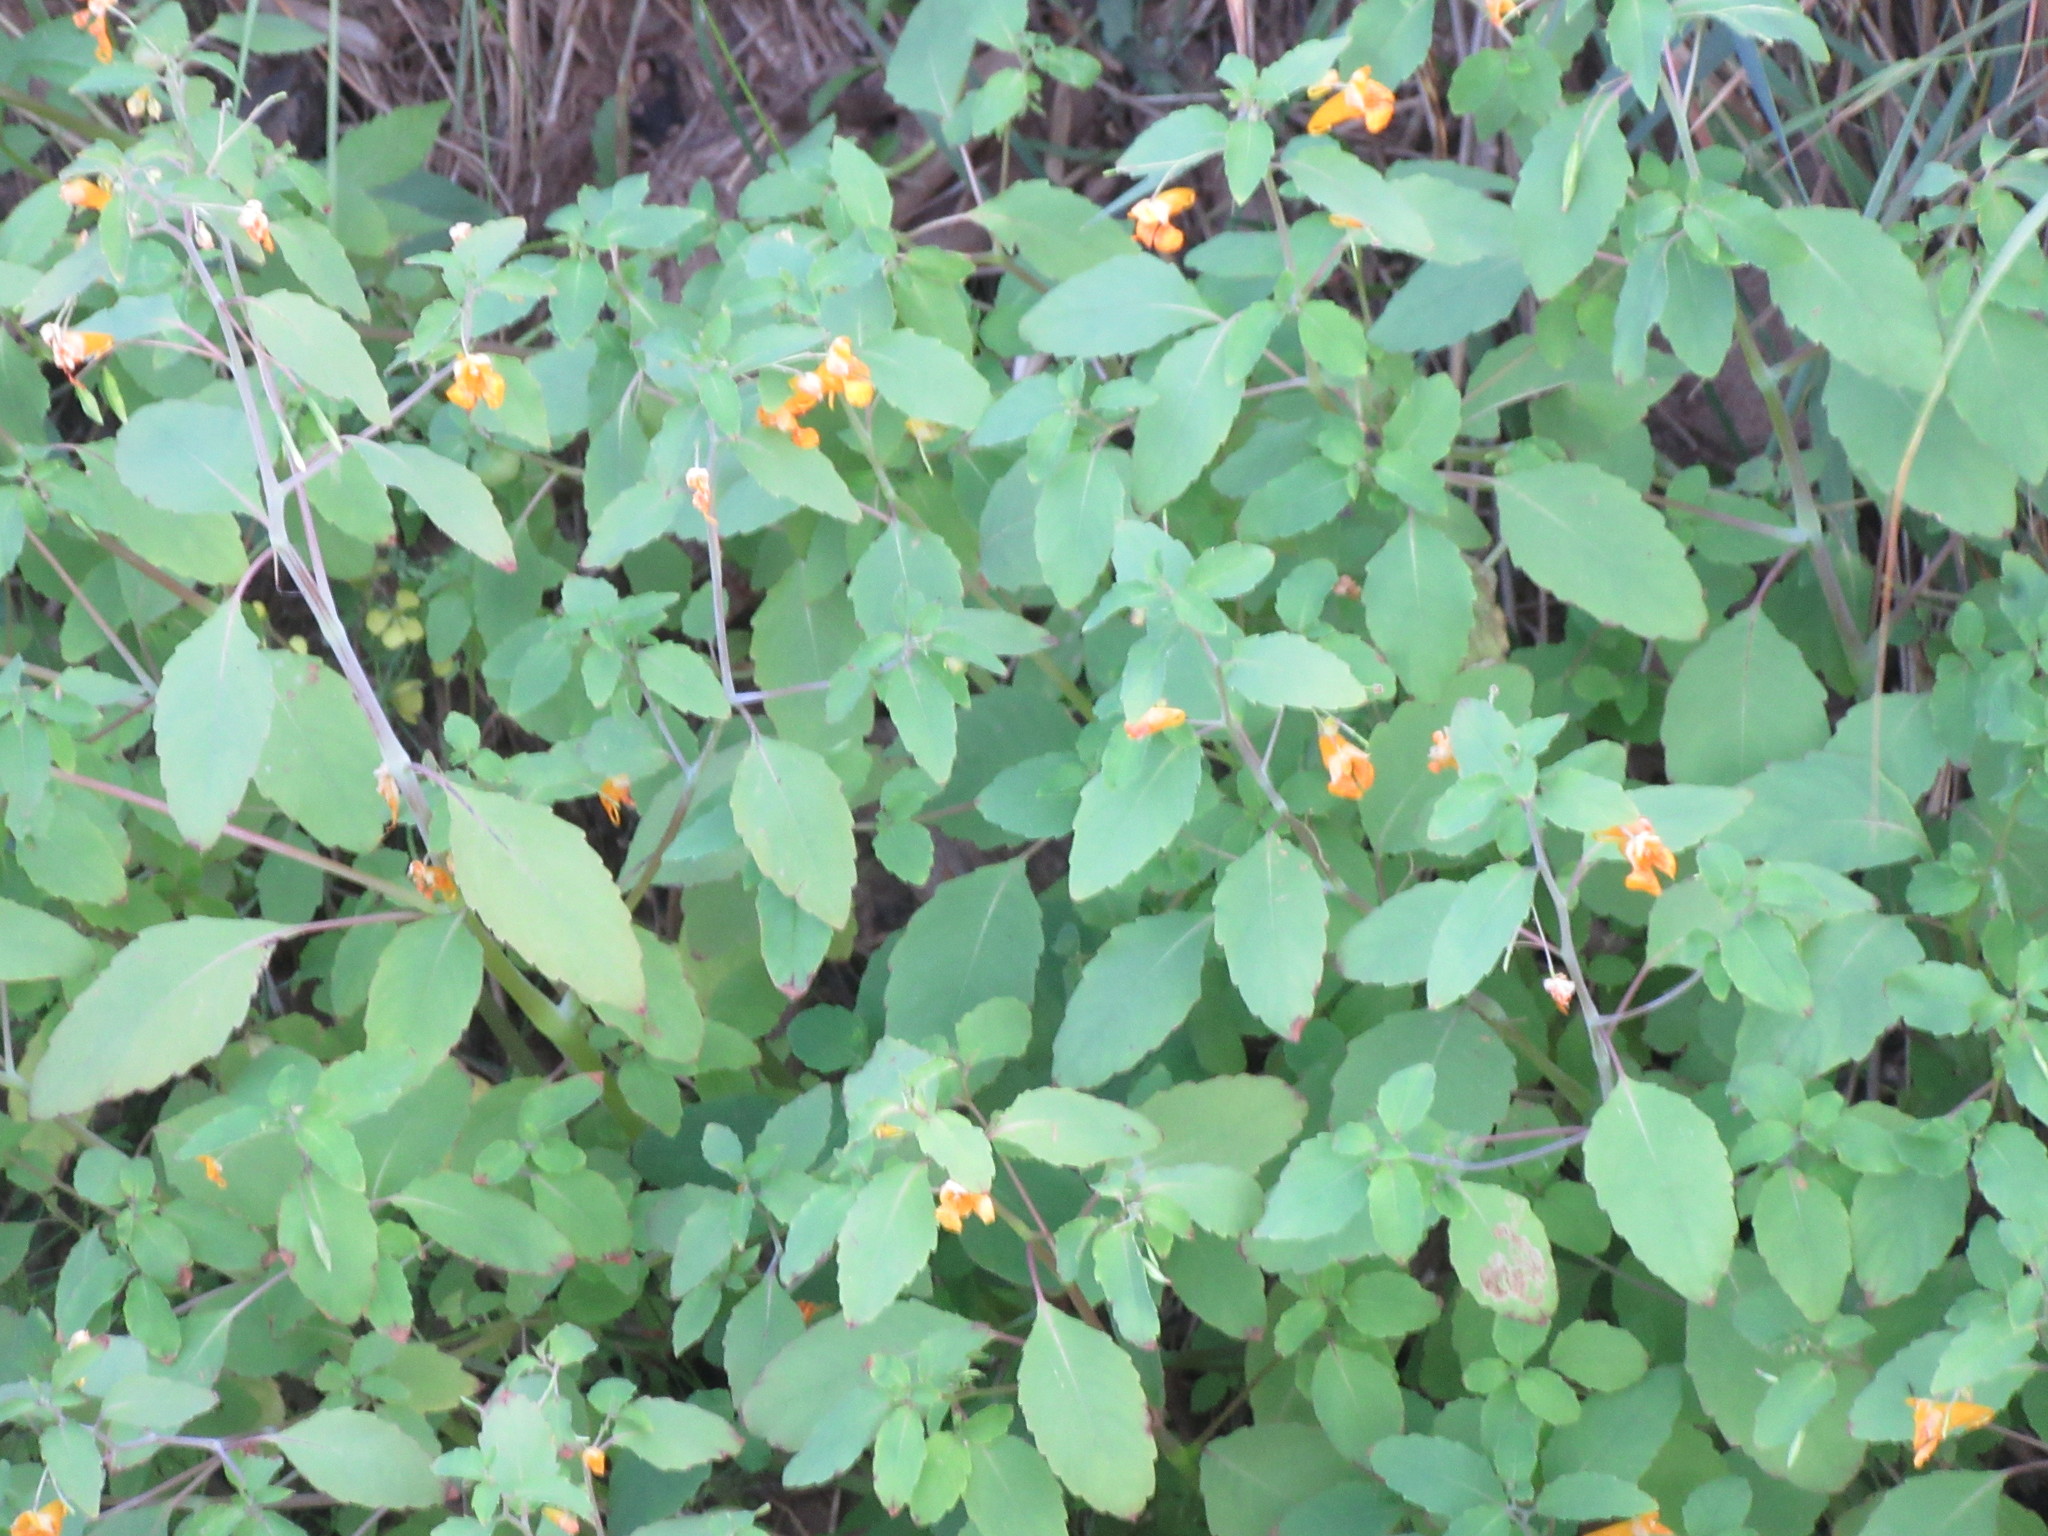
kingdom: Plantae
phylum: Tracheophyta
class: Magnoliopsida
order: Ericales
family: Balsaminaceae
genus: Impatiens
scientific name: Impatiens capensis
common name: Orange balsam
